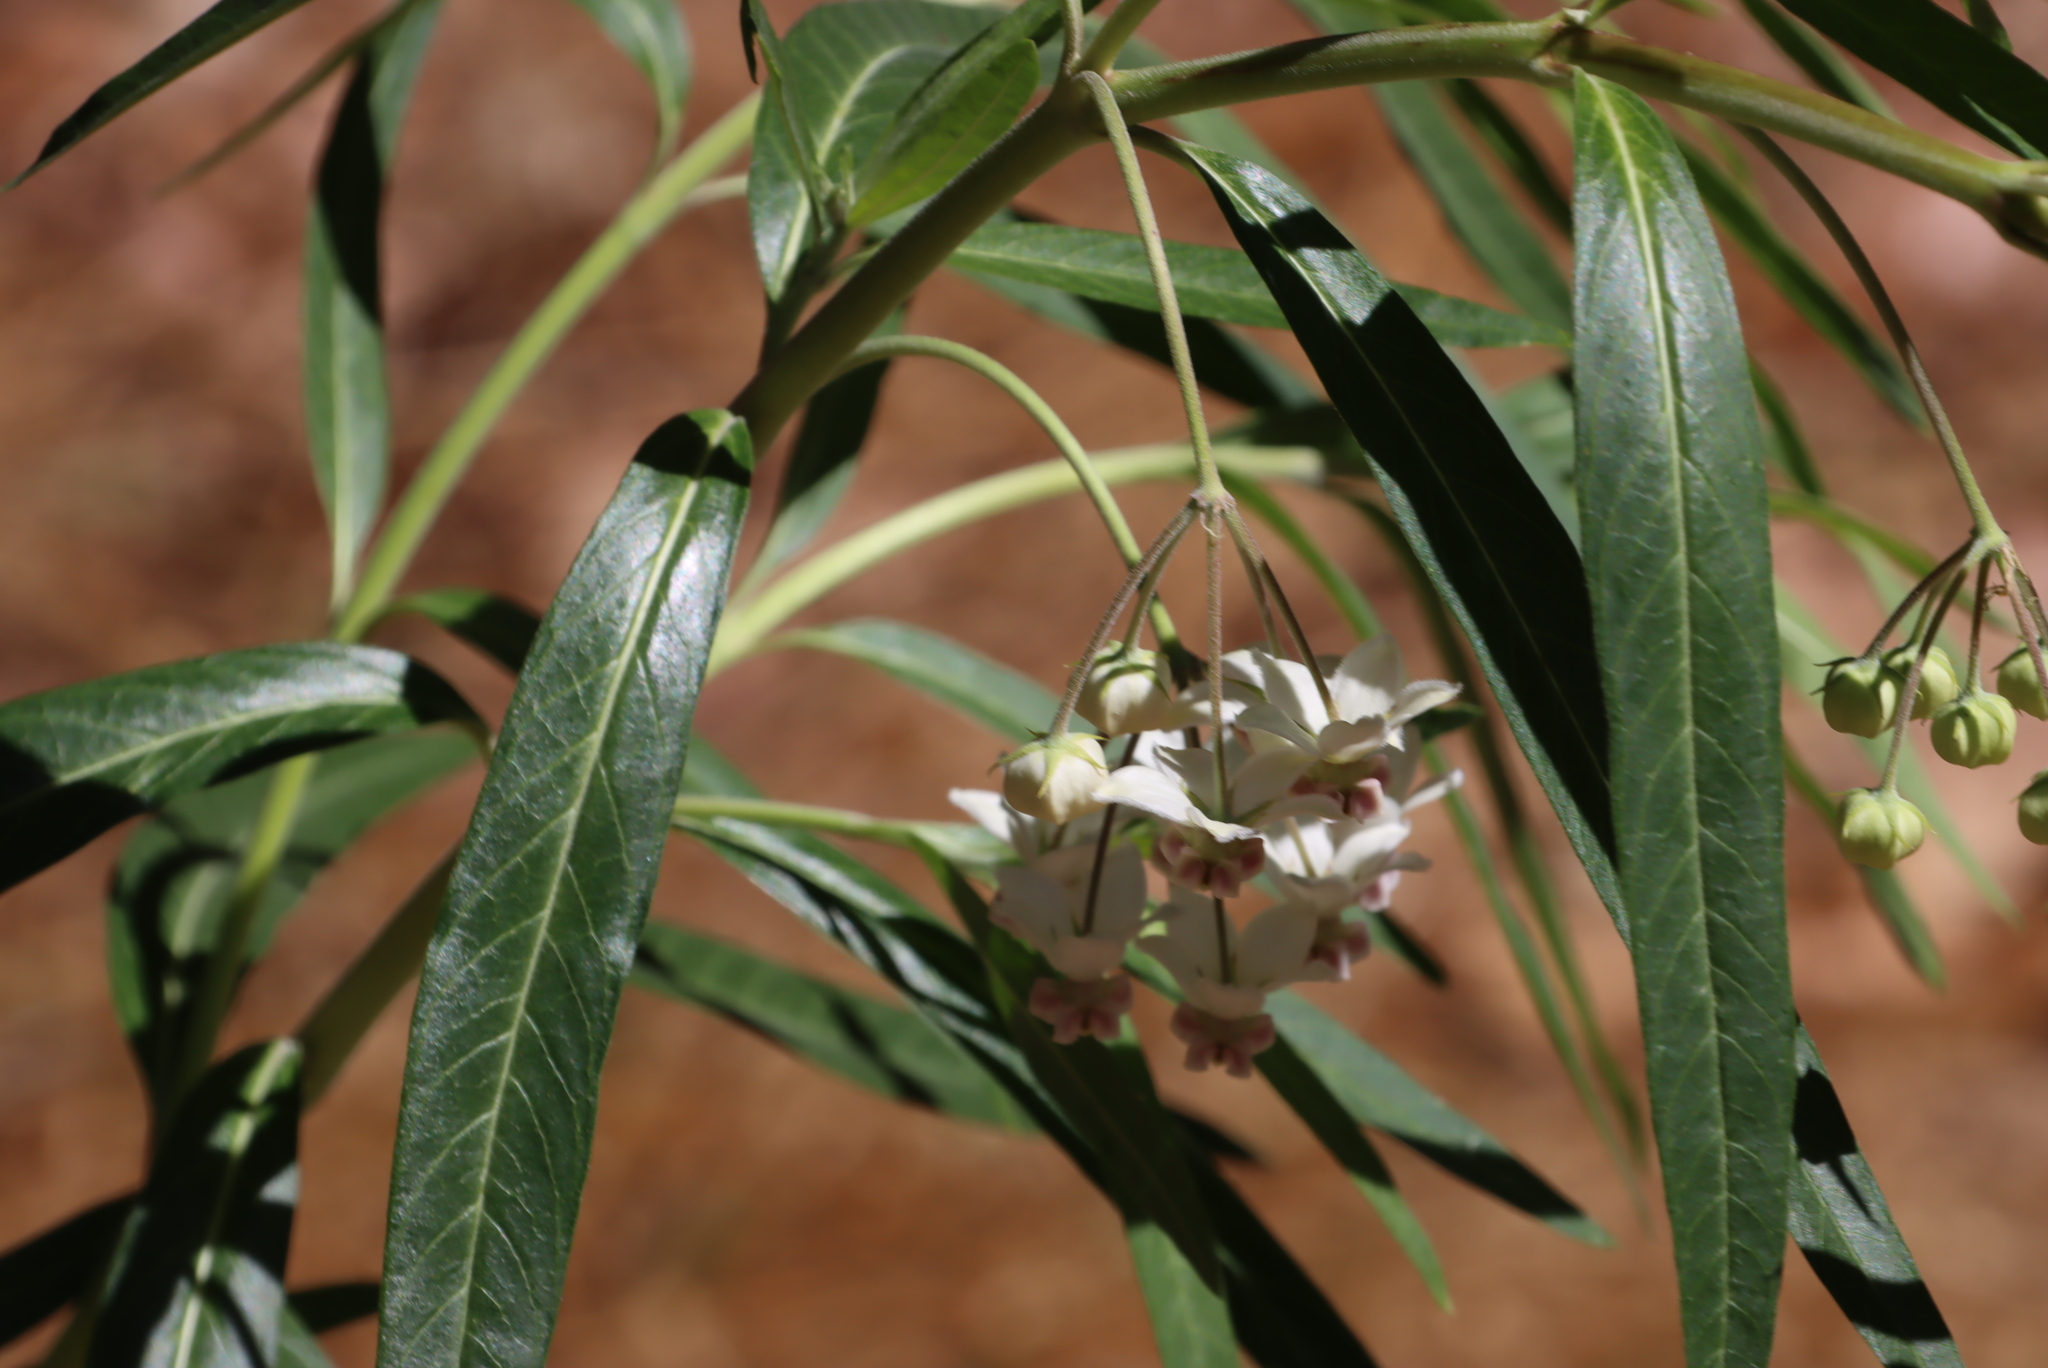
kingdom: Plantae
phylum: Tracheophyta
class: Magnoliopsida
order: Gentianales
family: Apocynaceae
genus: Gomphocarpus
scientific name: Gomphocarpus physocarpus
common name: Balloon cotton bush
